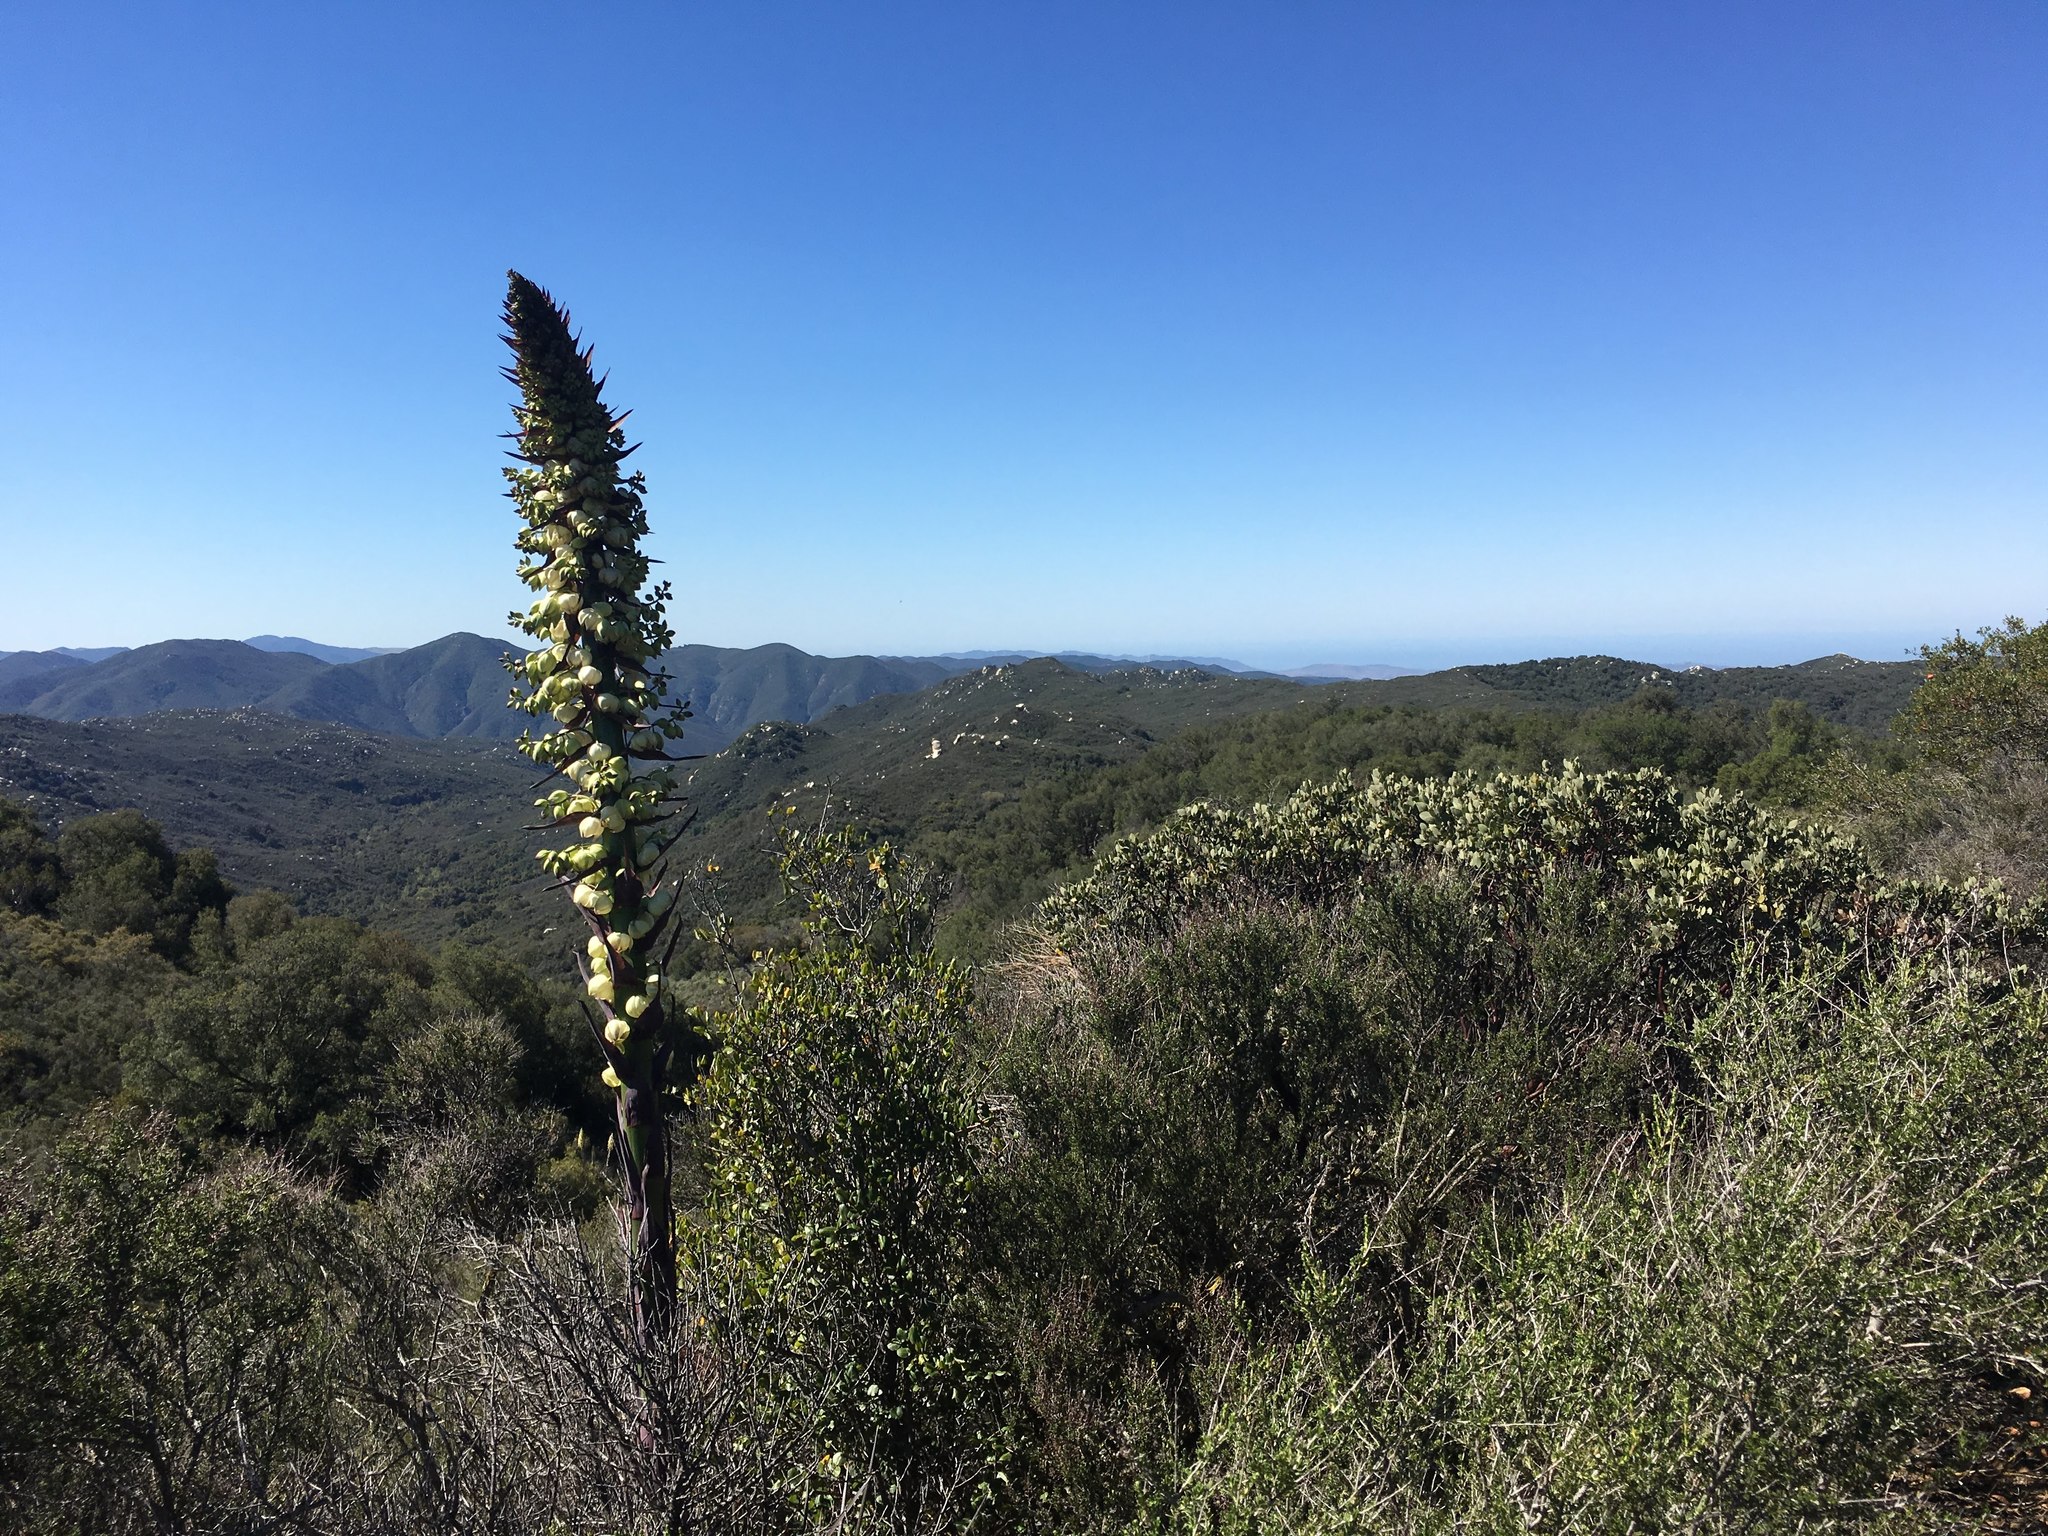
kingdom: Plantae
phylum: Tracheophyta
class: Liliopsida
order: Asparagales
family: Asparagaceae
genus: Hesperoyucca
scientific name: Hesperoyucca whipplei
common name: Our lord's-candle
